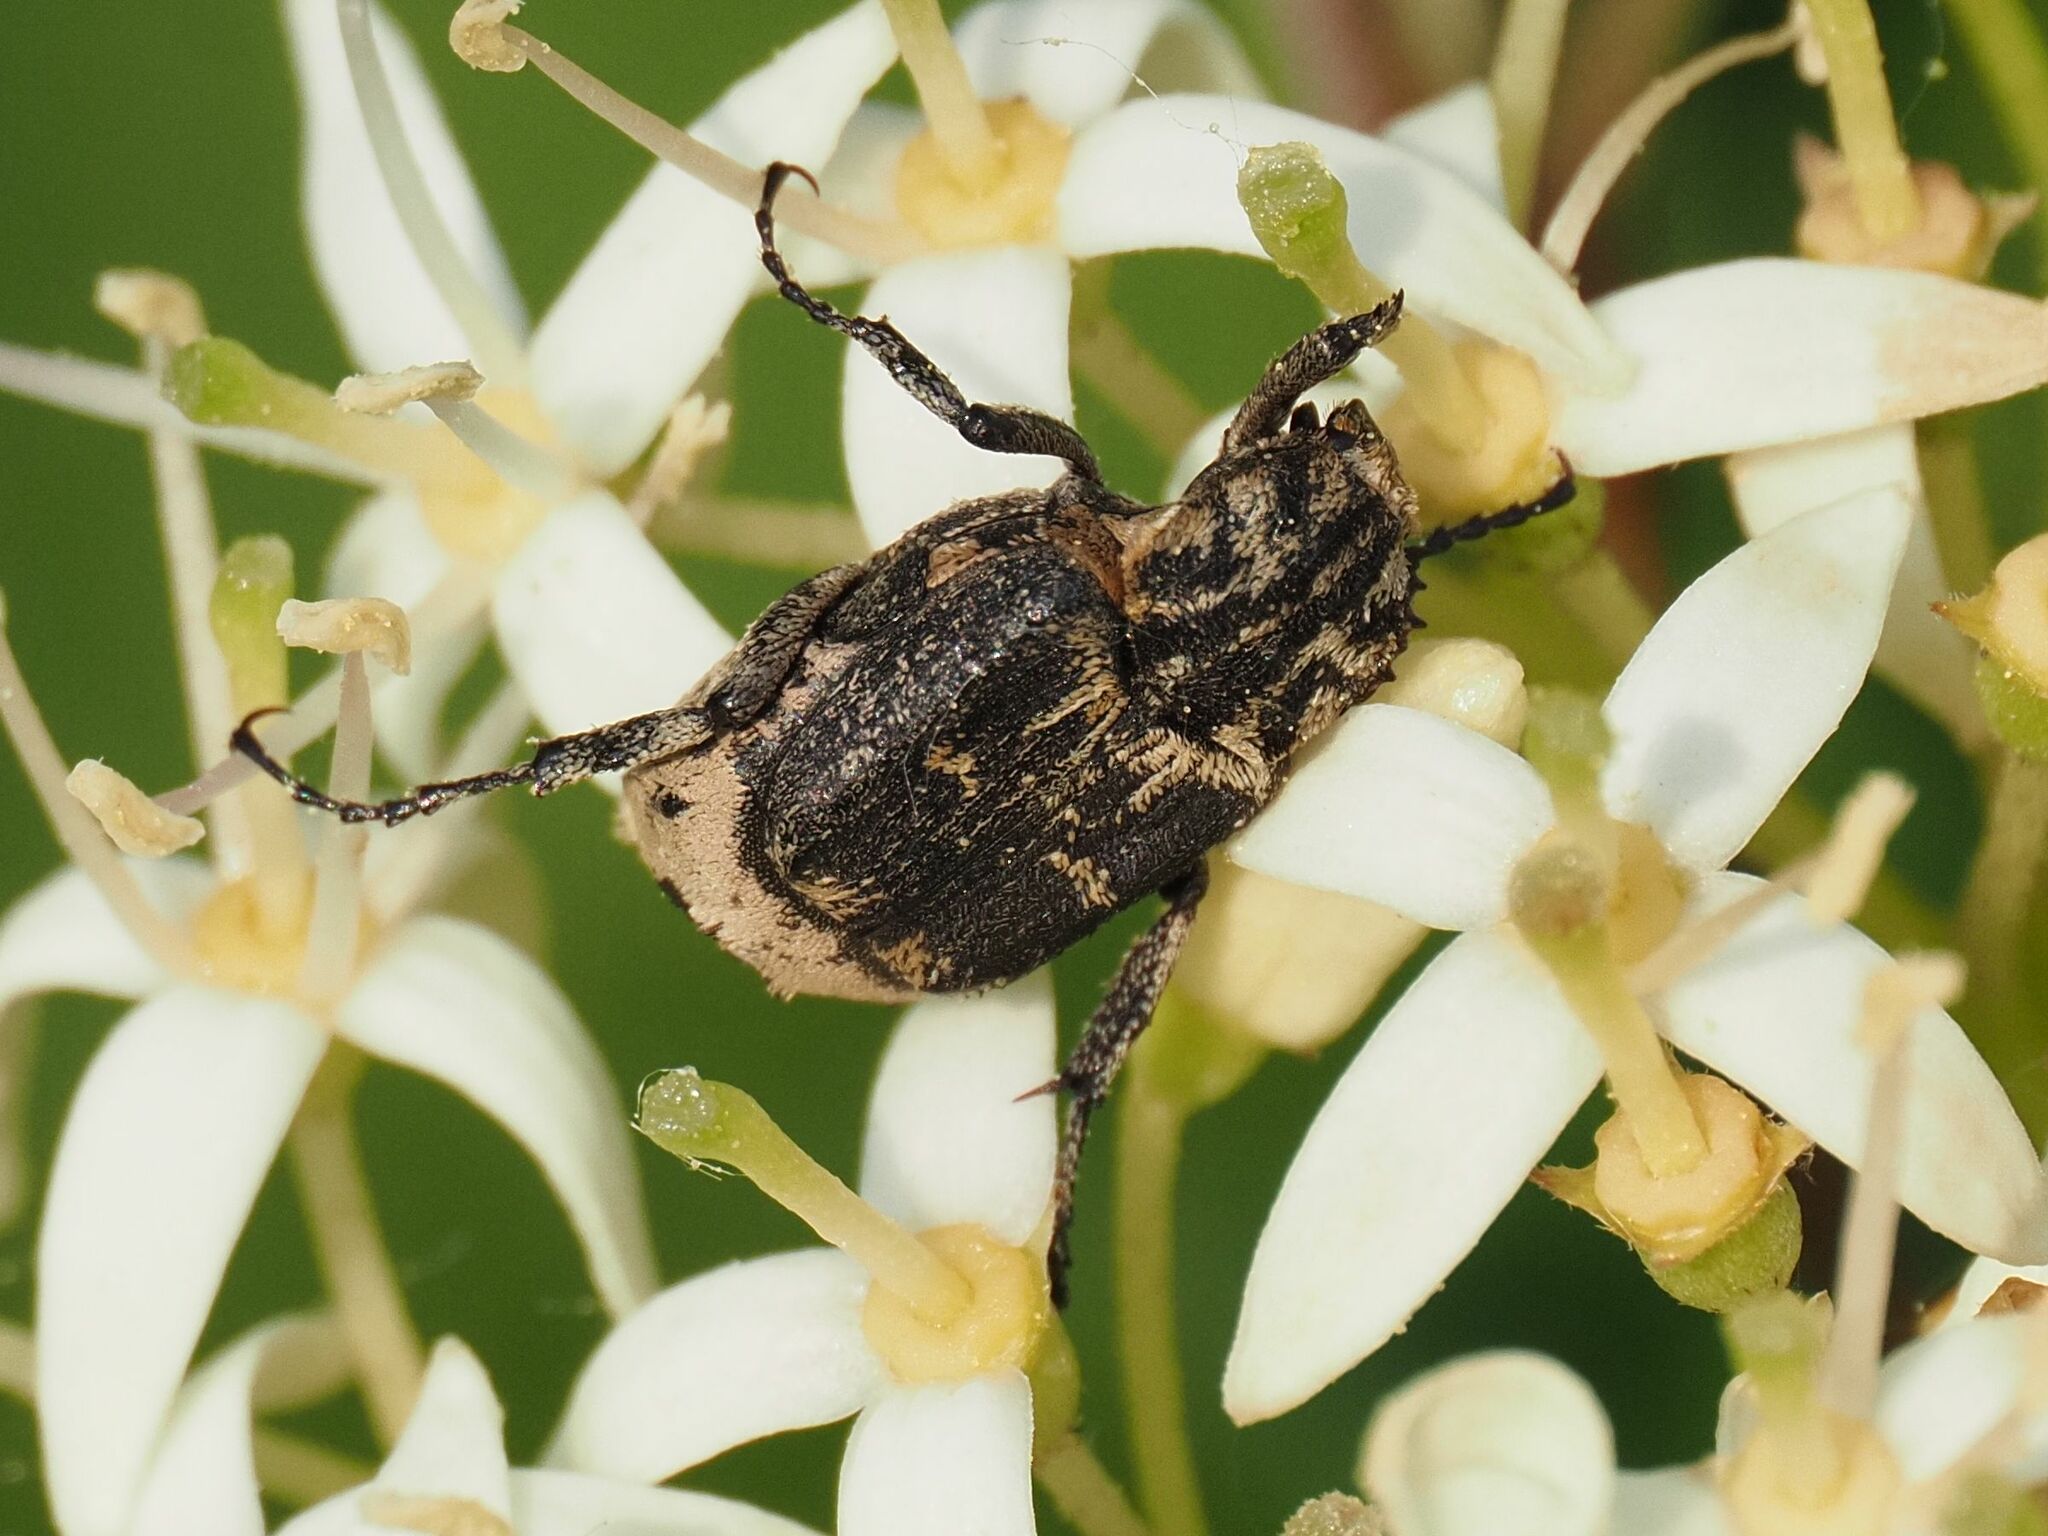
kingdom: Animalia
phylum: Arthropoda
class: Insecta
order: Coleoptera
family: Scarabaeidae
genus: Valgus
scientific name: Valgus hemipterus
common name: Bug flower chafer
